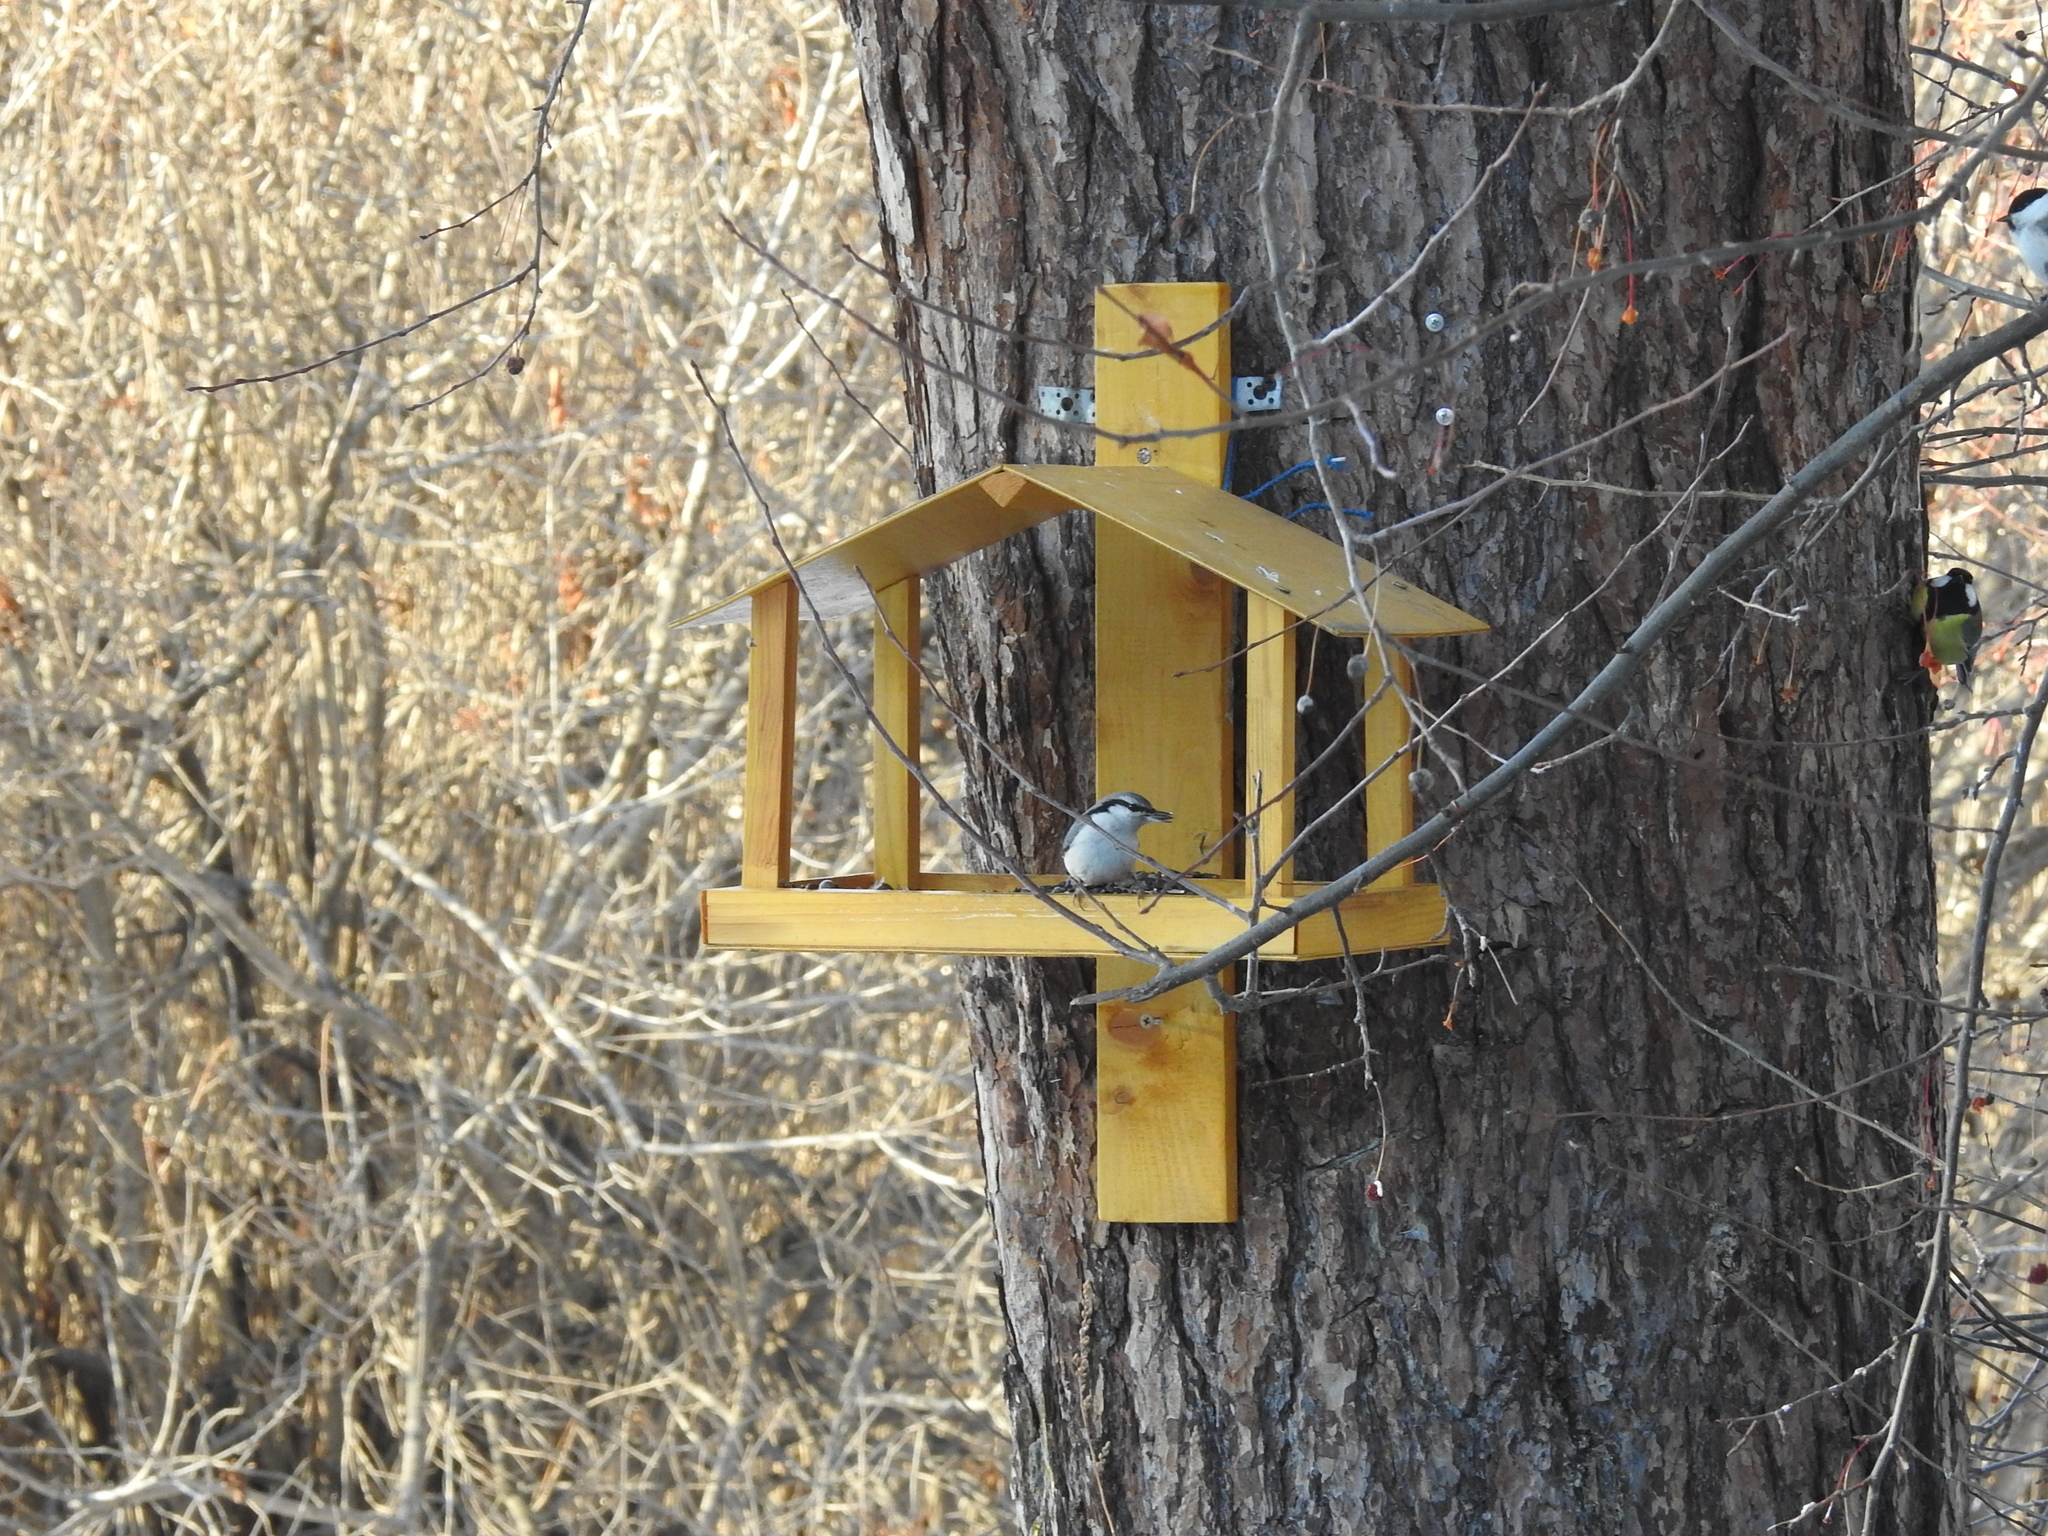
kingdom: Animalia
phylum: Chordata
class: Aves
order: Passeriformes
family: Sittidae
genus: Sitta
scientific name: Sitta europaea
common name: Eurasian nuthatch
